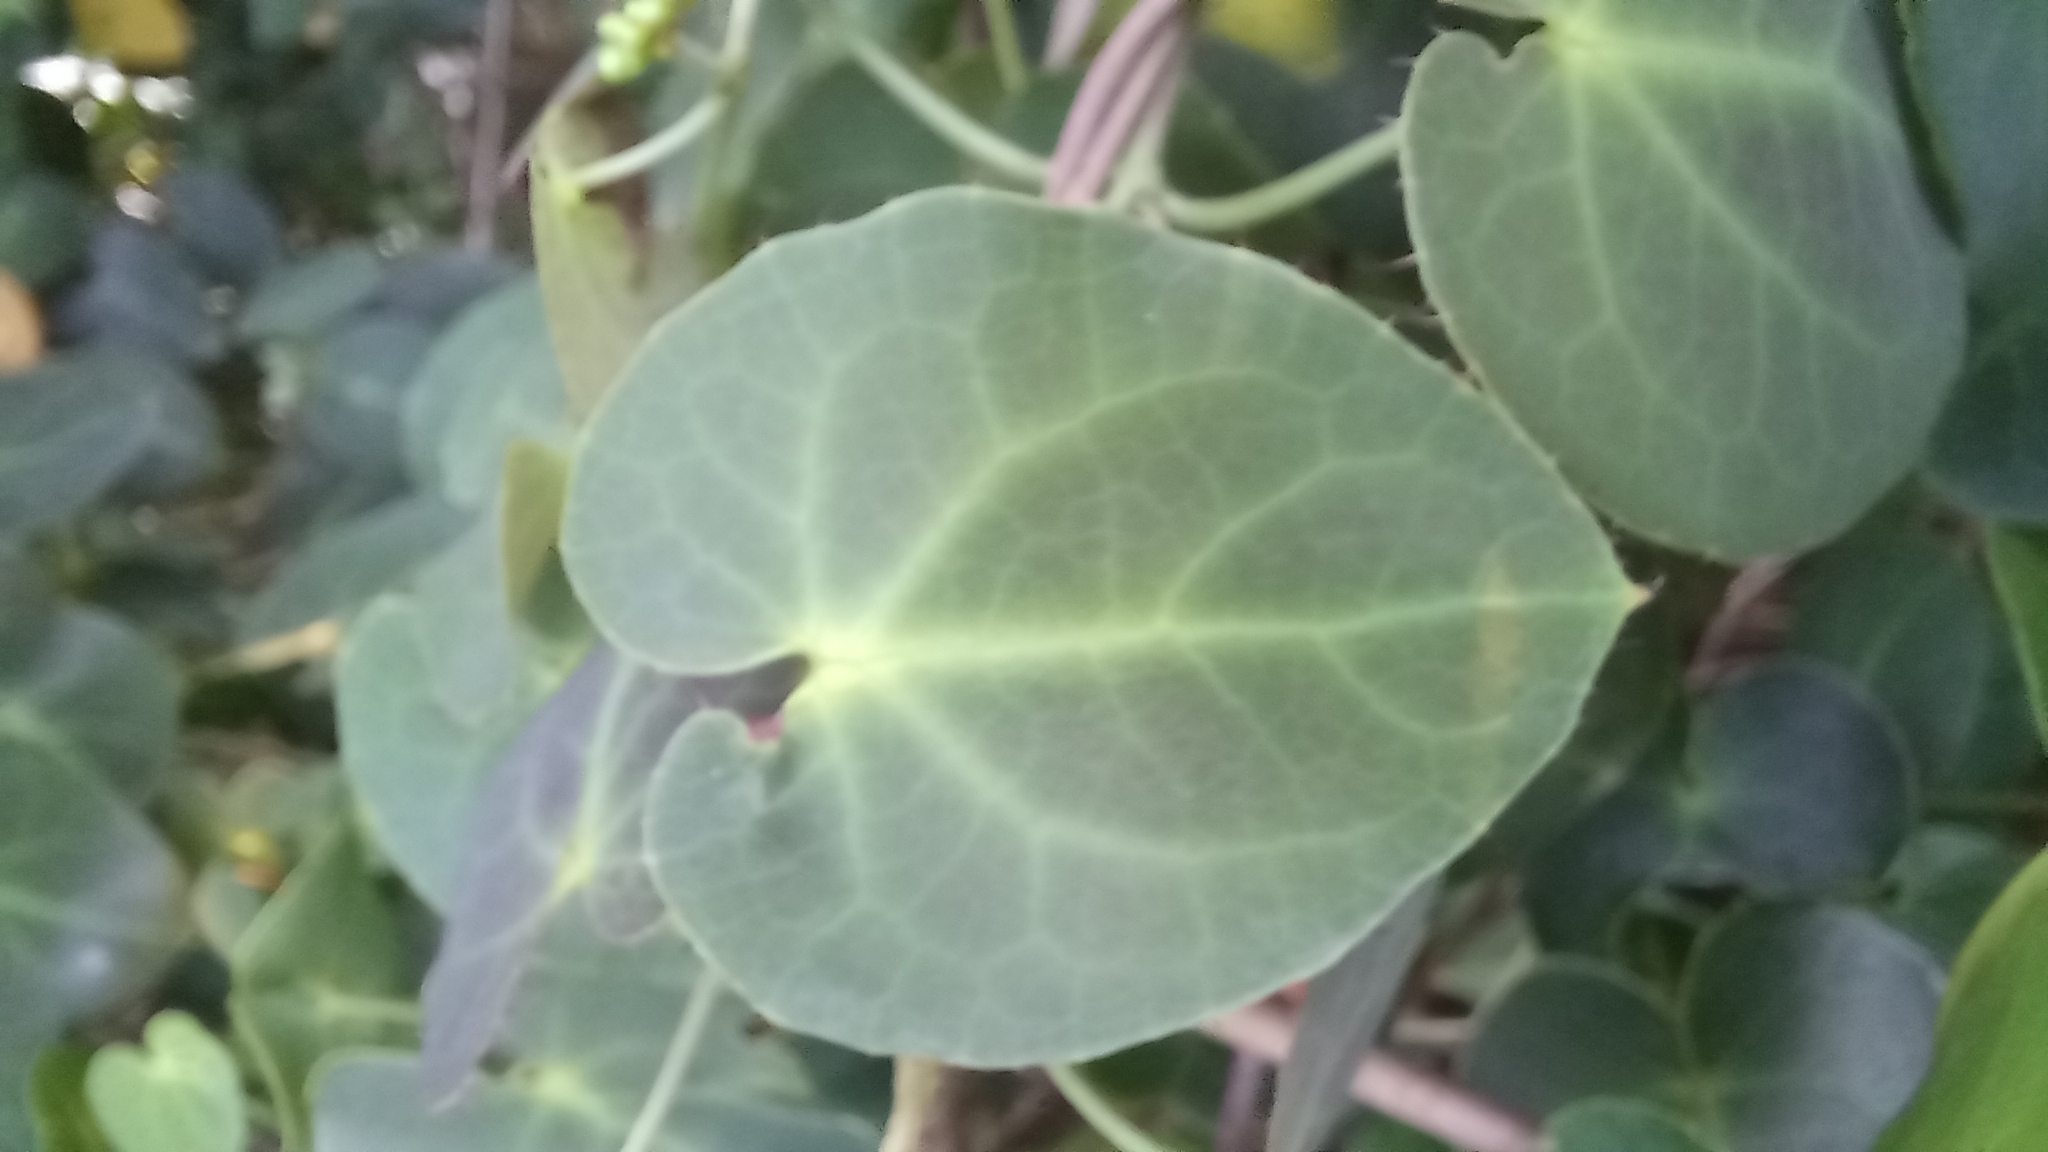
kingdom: Plantae
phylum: Tracheophyta
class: Magnoliopsida
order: Malpighiales
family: Malpighiaceae
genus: Stigmaphyllon
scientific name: Stigmaphyllon ciliatum
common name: Amazonvine
